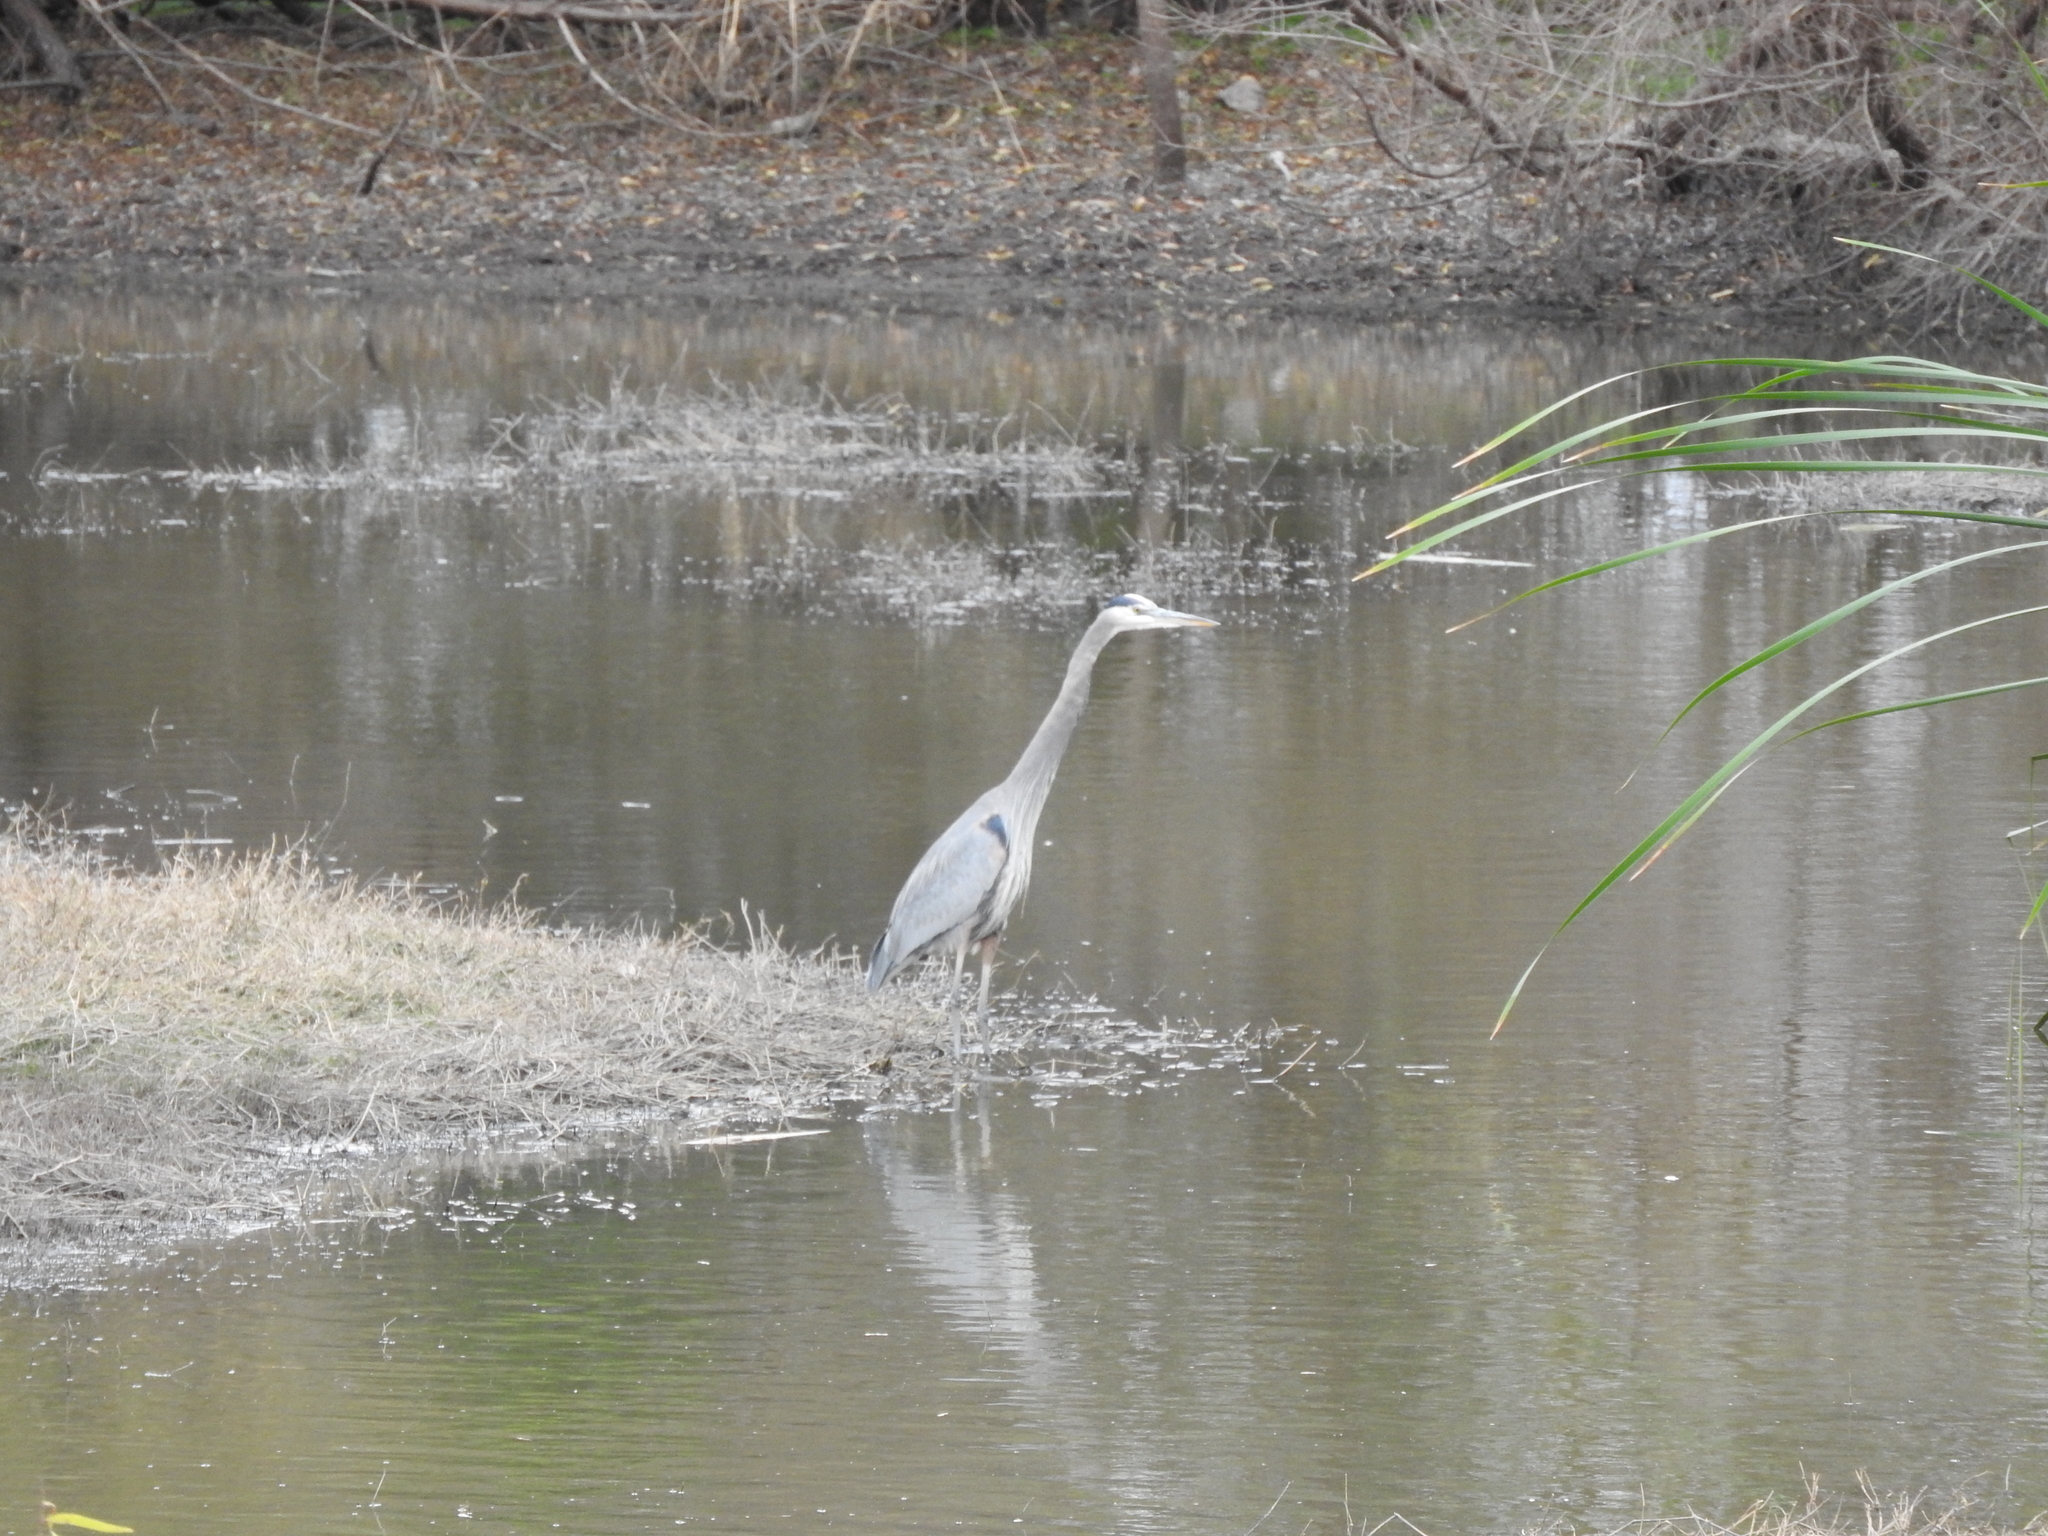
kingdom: Animalia
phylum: Chordata
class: Aves
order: Pelecaniformes
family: Ardeidae
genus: Ardea
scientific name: Ardea herodias
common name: Great blue heron
